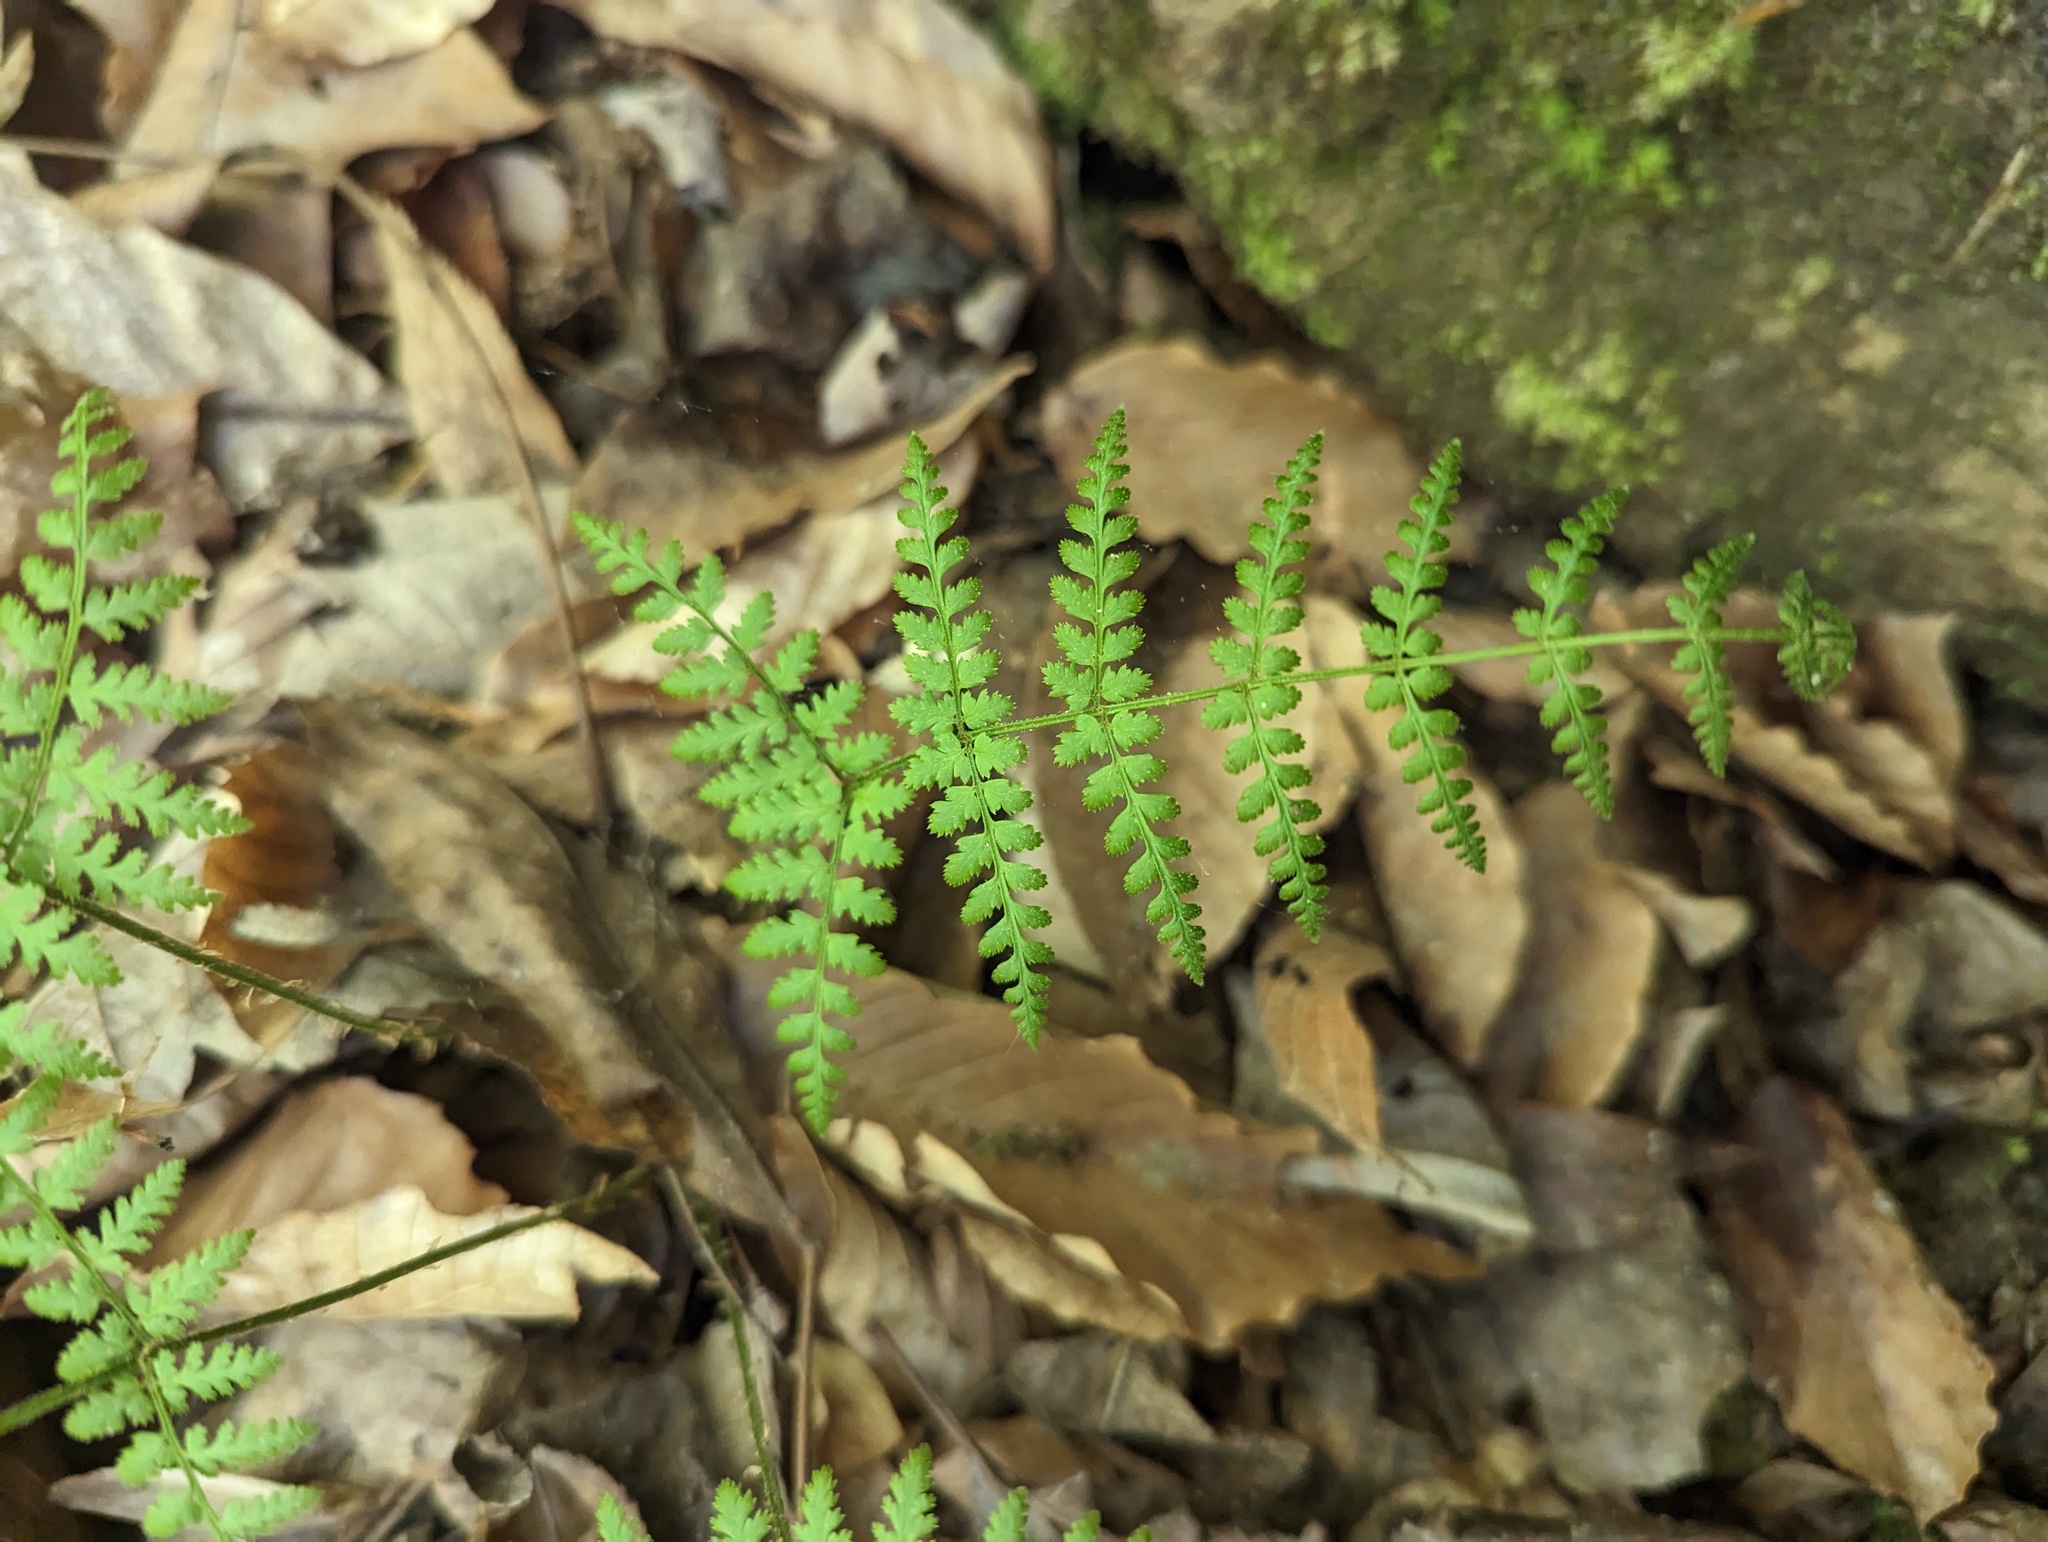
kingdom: Plantae
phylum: Tracheophyta
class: Polypodiopsida
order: Polypodiales
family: Dryopteridaceae
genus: Dryopteris
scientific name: Dryopteris intermedia
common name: Evergreen wood fern
